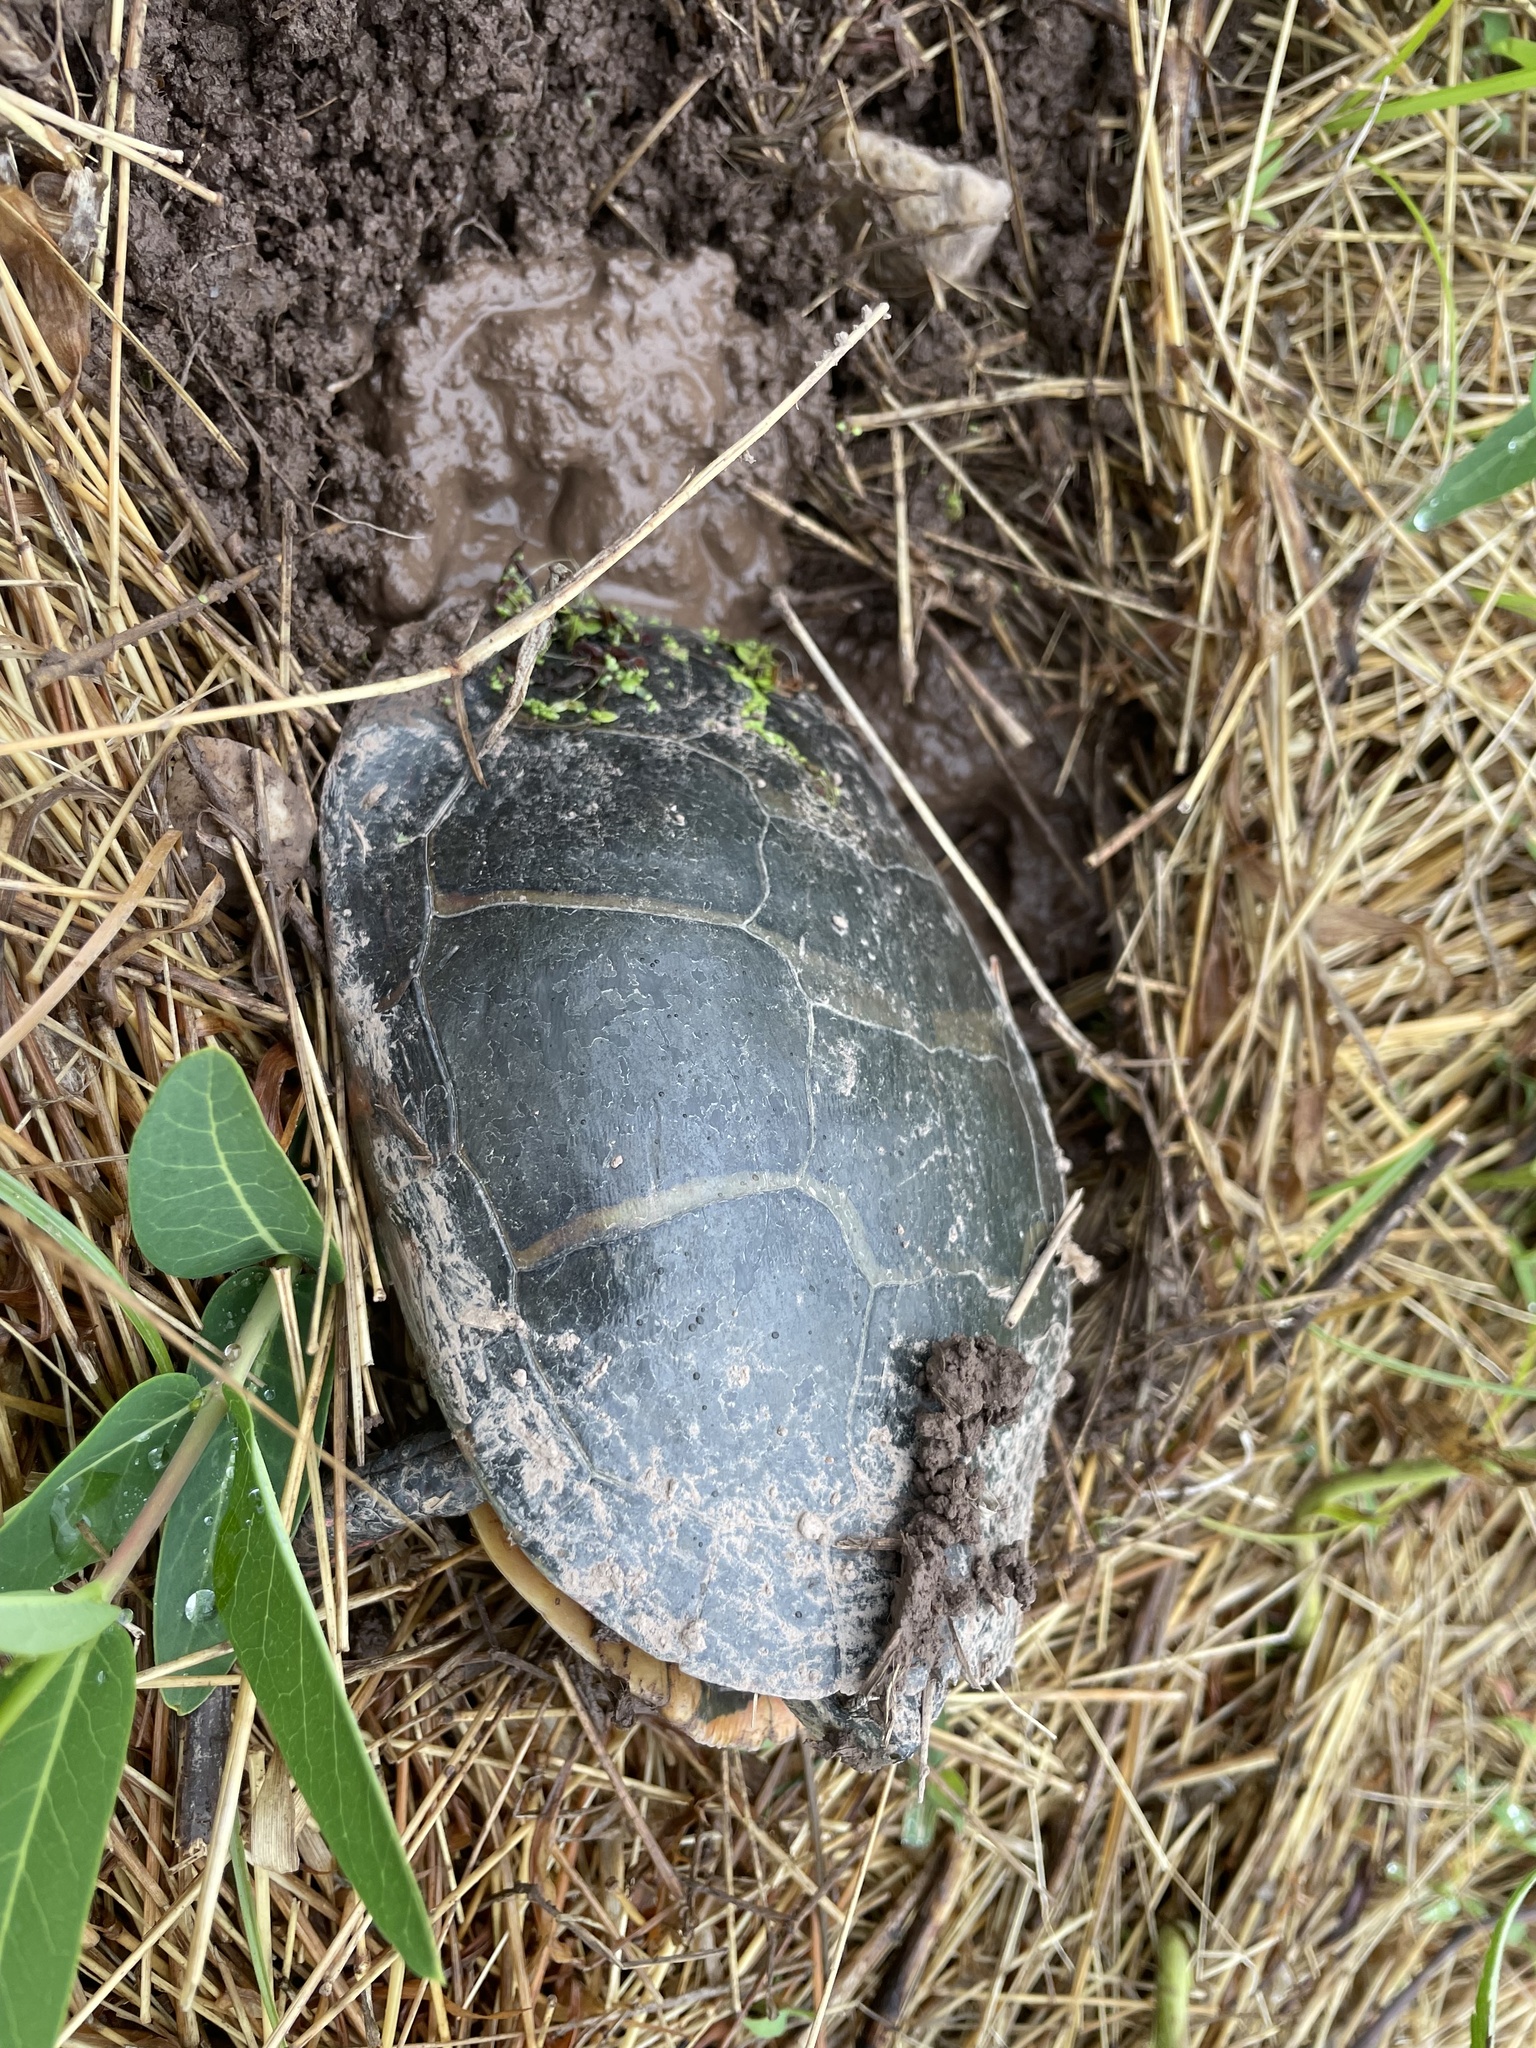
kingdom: Animalia
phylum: Chordata
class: Testudines
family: Emydidae
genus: Chrysemys
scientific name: Chrysemys picta
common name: Painted turtle
